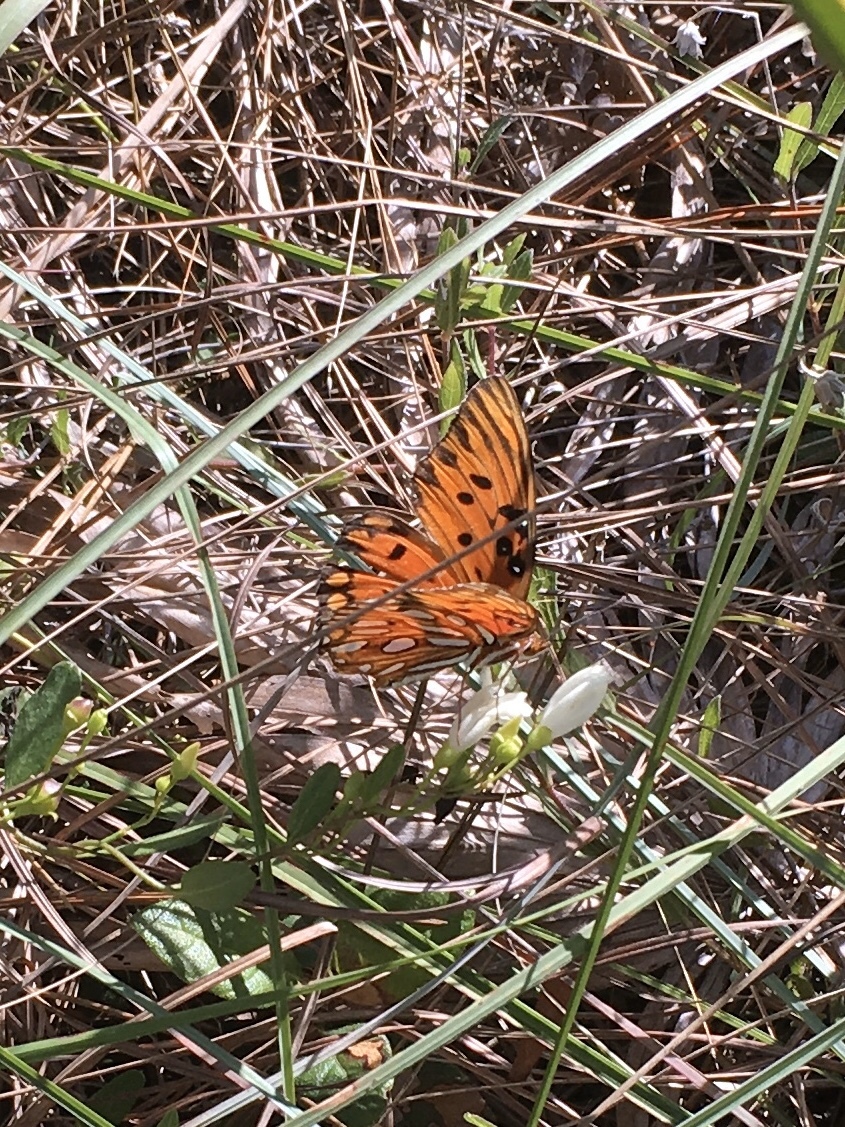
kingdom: Animalia
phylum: Arthropoda
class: Insecta
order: Lepidoptera
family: Nymphalidae
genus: Dione
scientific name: Dione vanillae
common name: Gulf fritillary
